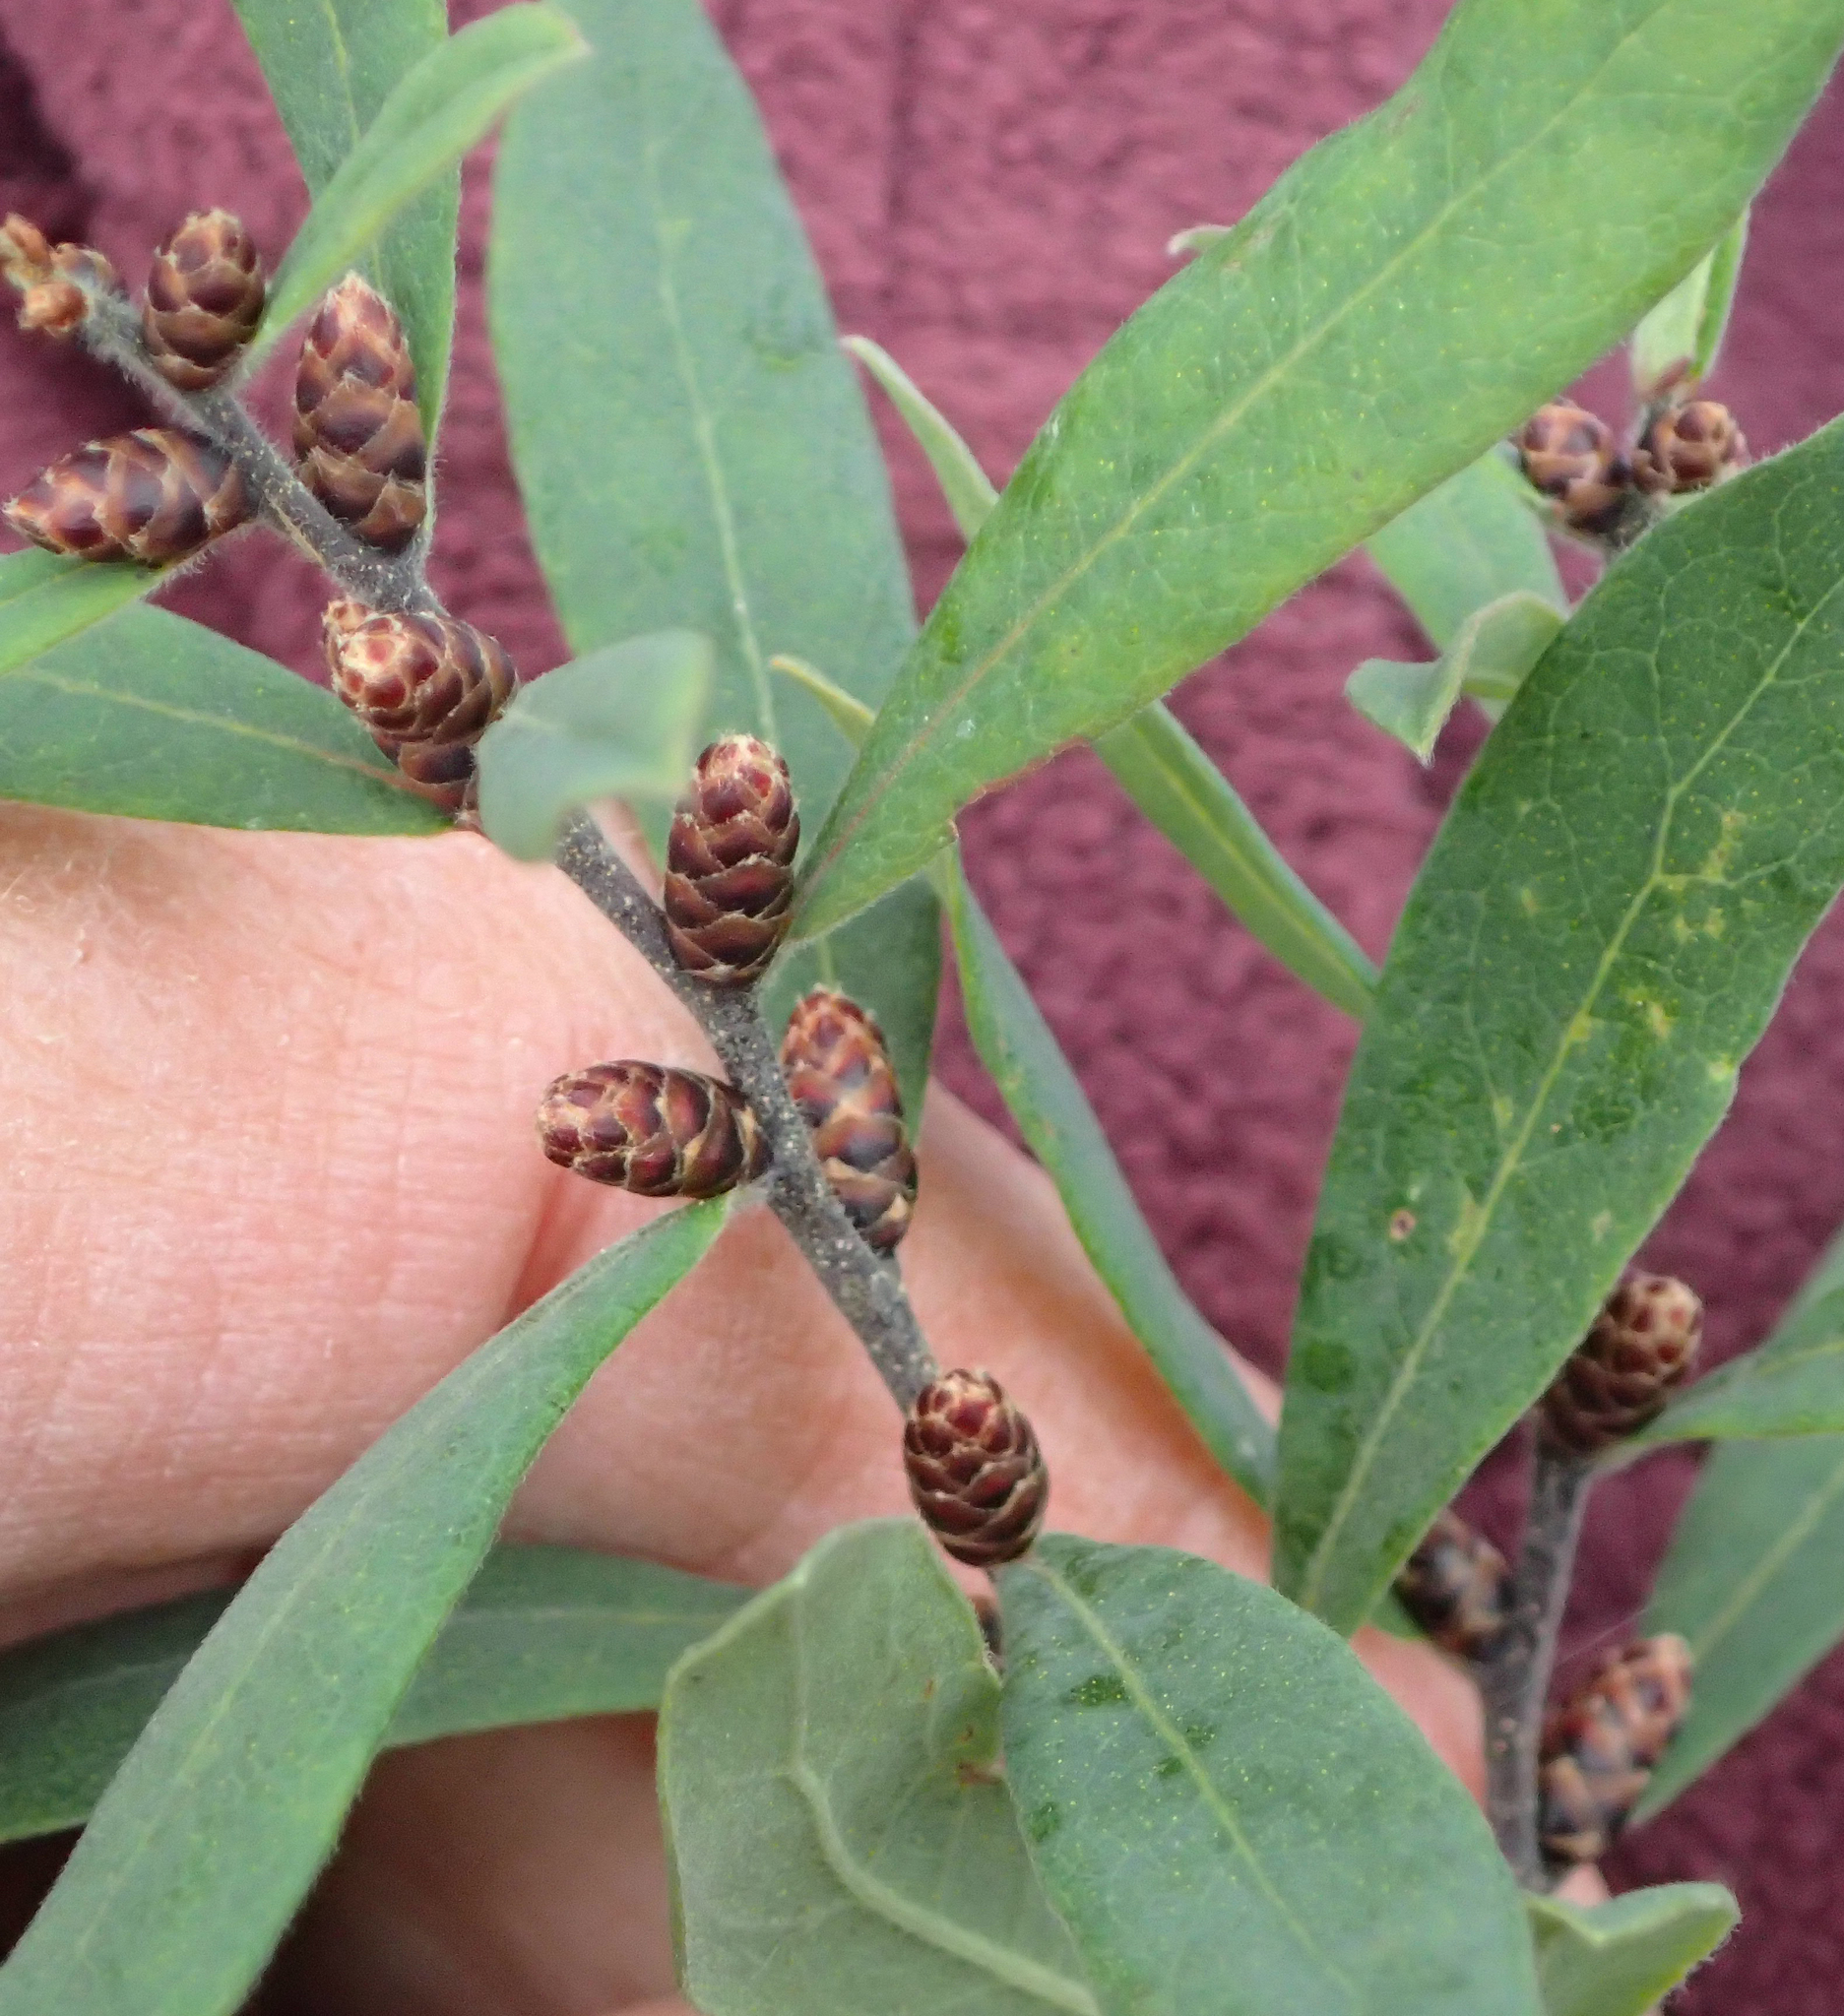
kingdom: Plantae
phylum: Tracheophyta
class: Magnoliopsida
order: Fagales
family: Myricaceae
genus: Myrica
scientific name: Myrica gale
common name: Sweet gale
